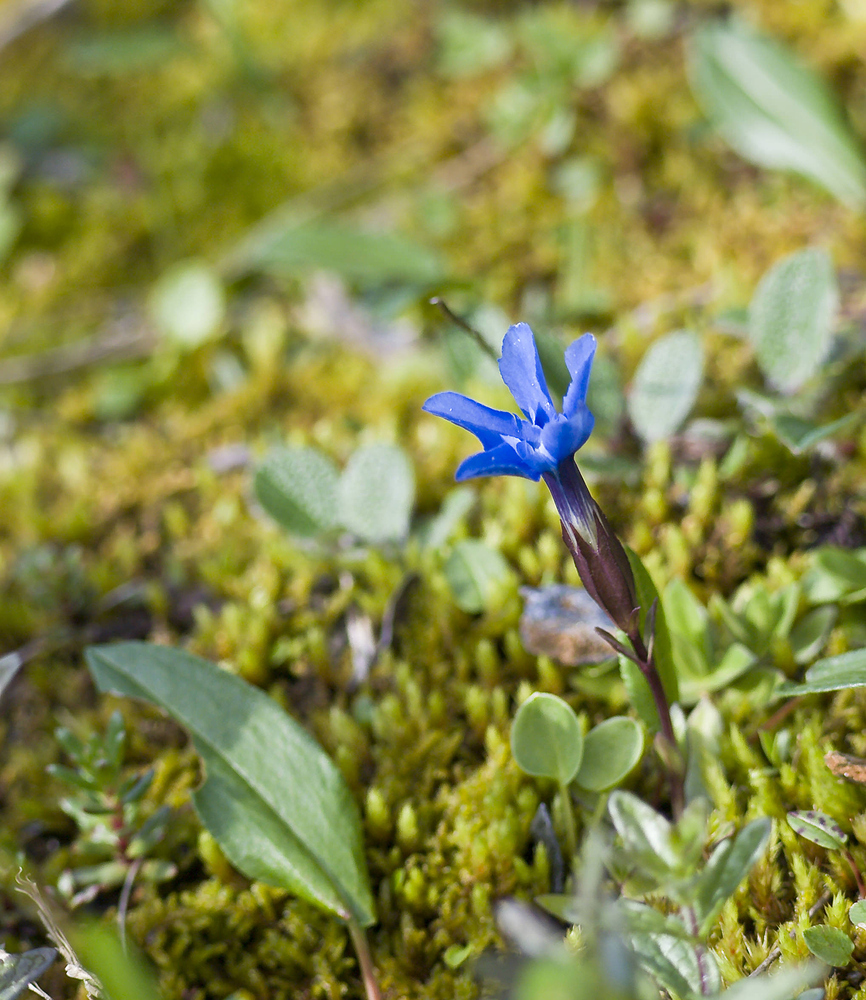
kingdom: Plantae
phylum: Tracheophyta
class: Magnoliopsida
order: Gentianales
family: Gentianaceae
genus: Gentiana
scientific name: Gentiana verna
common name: Spring gentian
